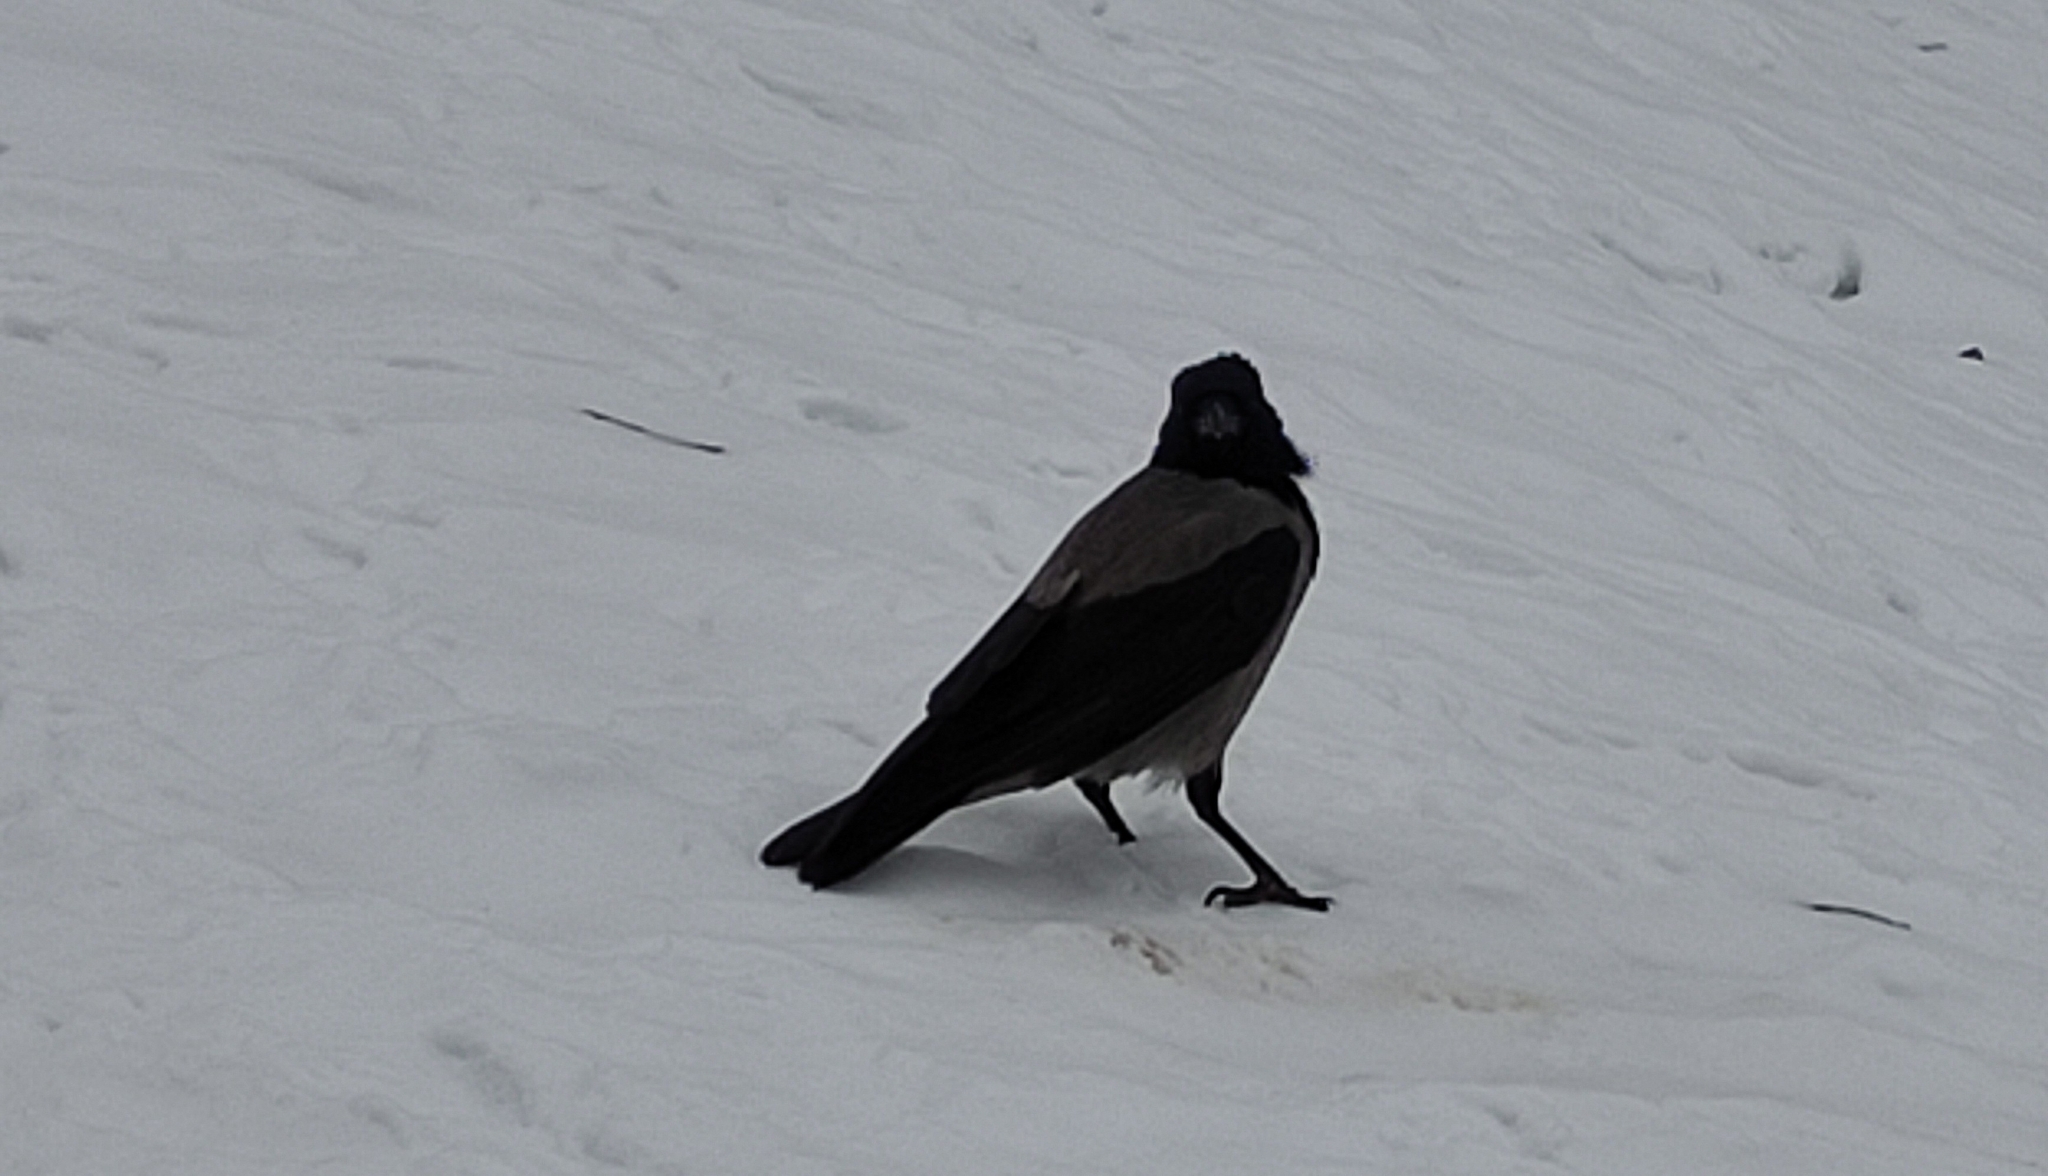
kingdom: Animalia
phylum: Chordata
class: Aves
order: Passeriformes
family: Corvidae
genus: Corvus
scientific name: Corvus cornix
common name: Hooded crow
